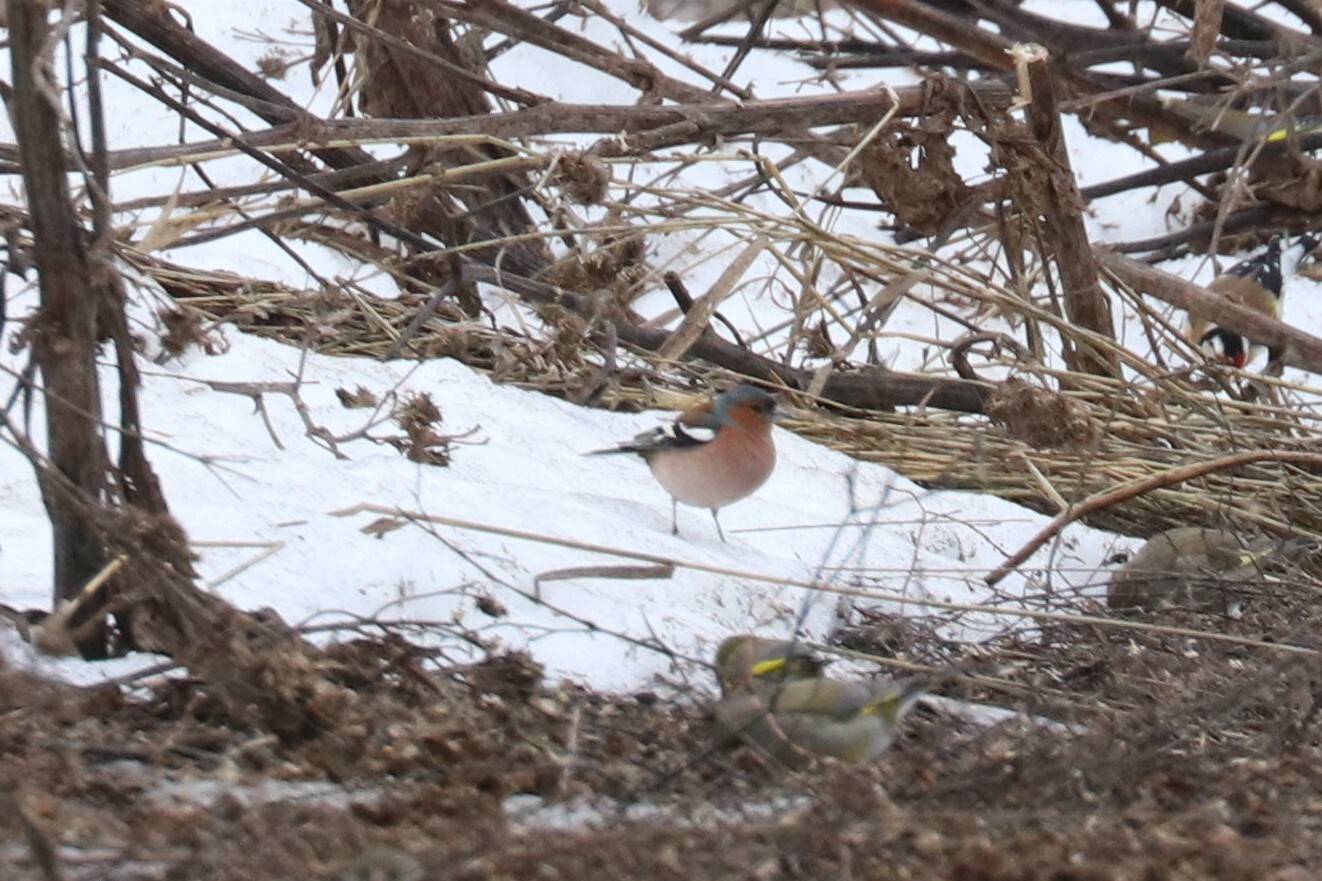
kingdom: Animalia
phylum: Chordata
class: Aves
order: Passeriformes
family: Fringillidae
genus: Fringilla
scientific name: Fringilla coelebs
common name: Common chaffinch
